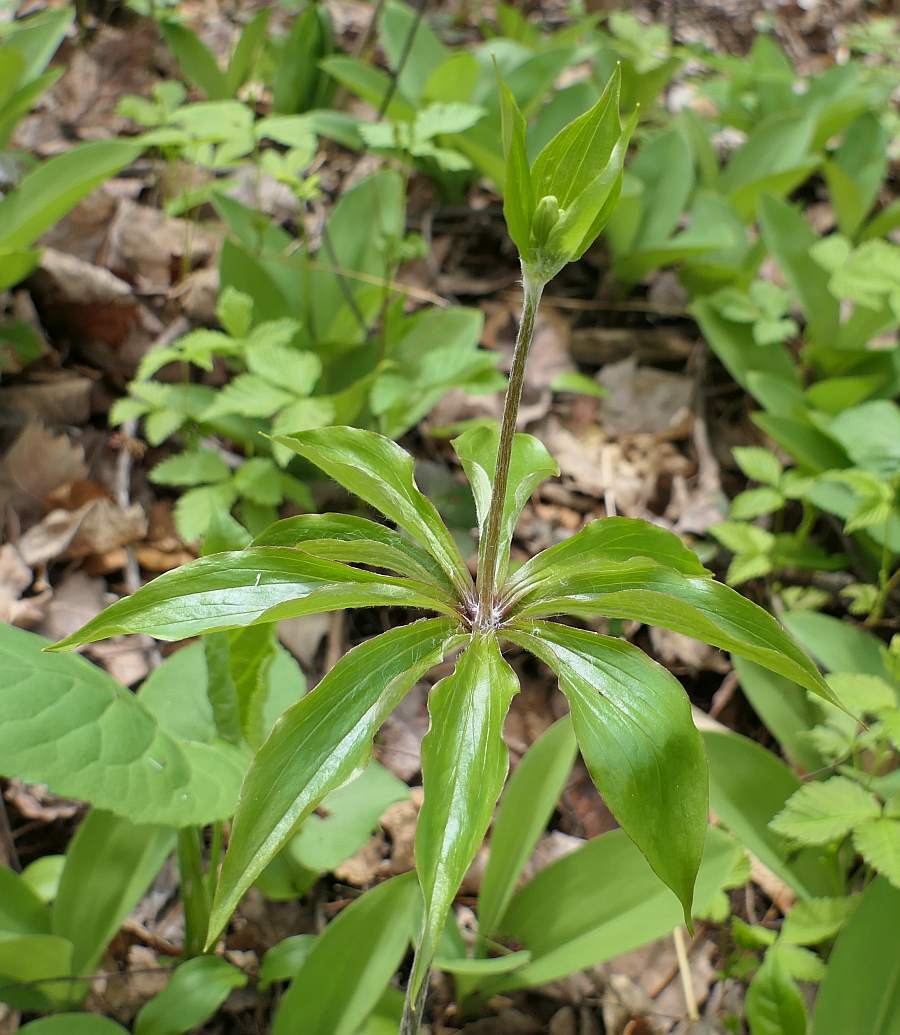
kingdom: Plantae
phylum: Tracheophyta
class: Liliopsida
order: Liliales
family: Liliaceae
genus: Medeola
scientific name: Medeola virginiana
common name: Indian cucumber-root
